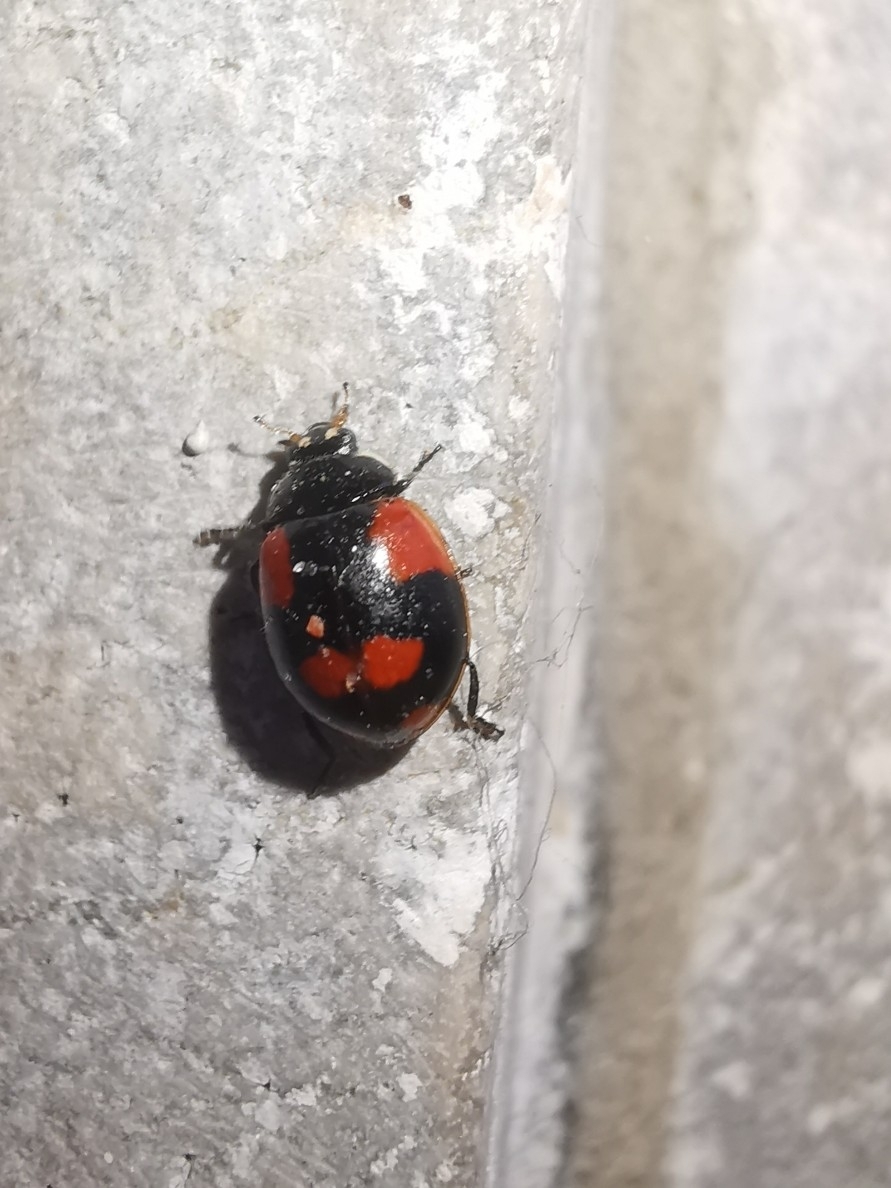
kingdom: Animalia
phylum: Arthropoda
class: Insecta
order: Coleoptera
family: Coccinellidae
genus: Adalia
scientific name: Adalia bipunctata
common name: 2-spot ladybird
